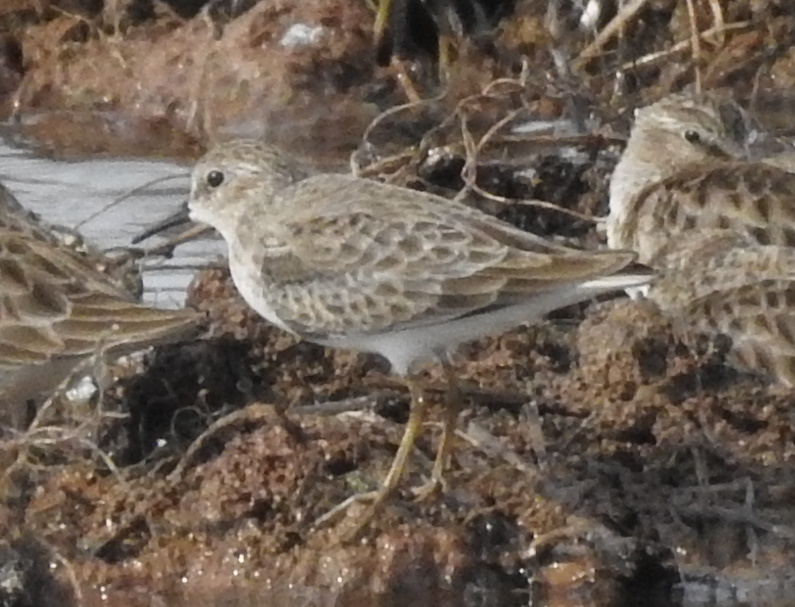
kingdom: Animalia
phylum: Chordata
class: Aves
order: Charadriiformes
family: Scolopacidae
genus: Calidris
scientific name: Calidris minutilla
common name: Least sandpiper
